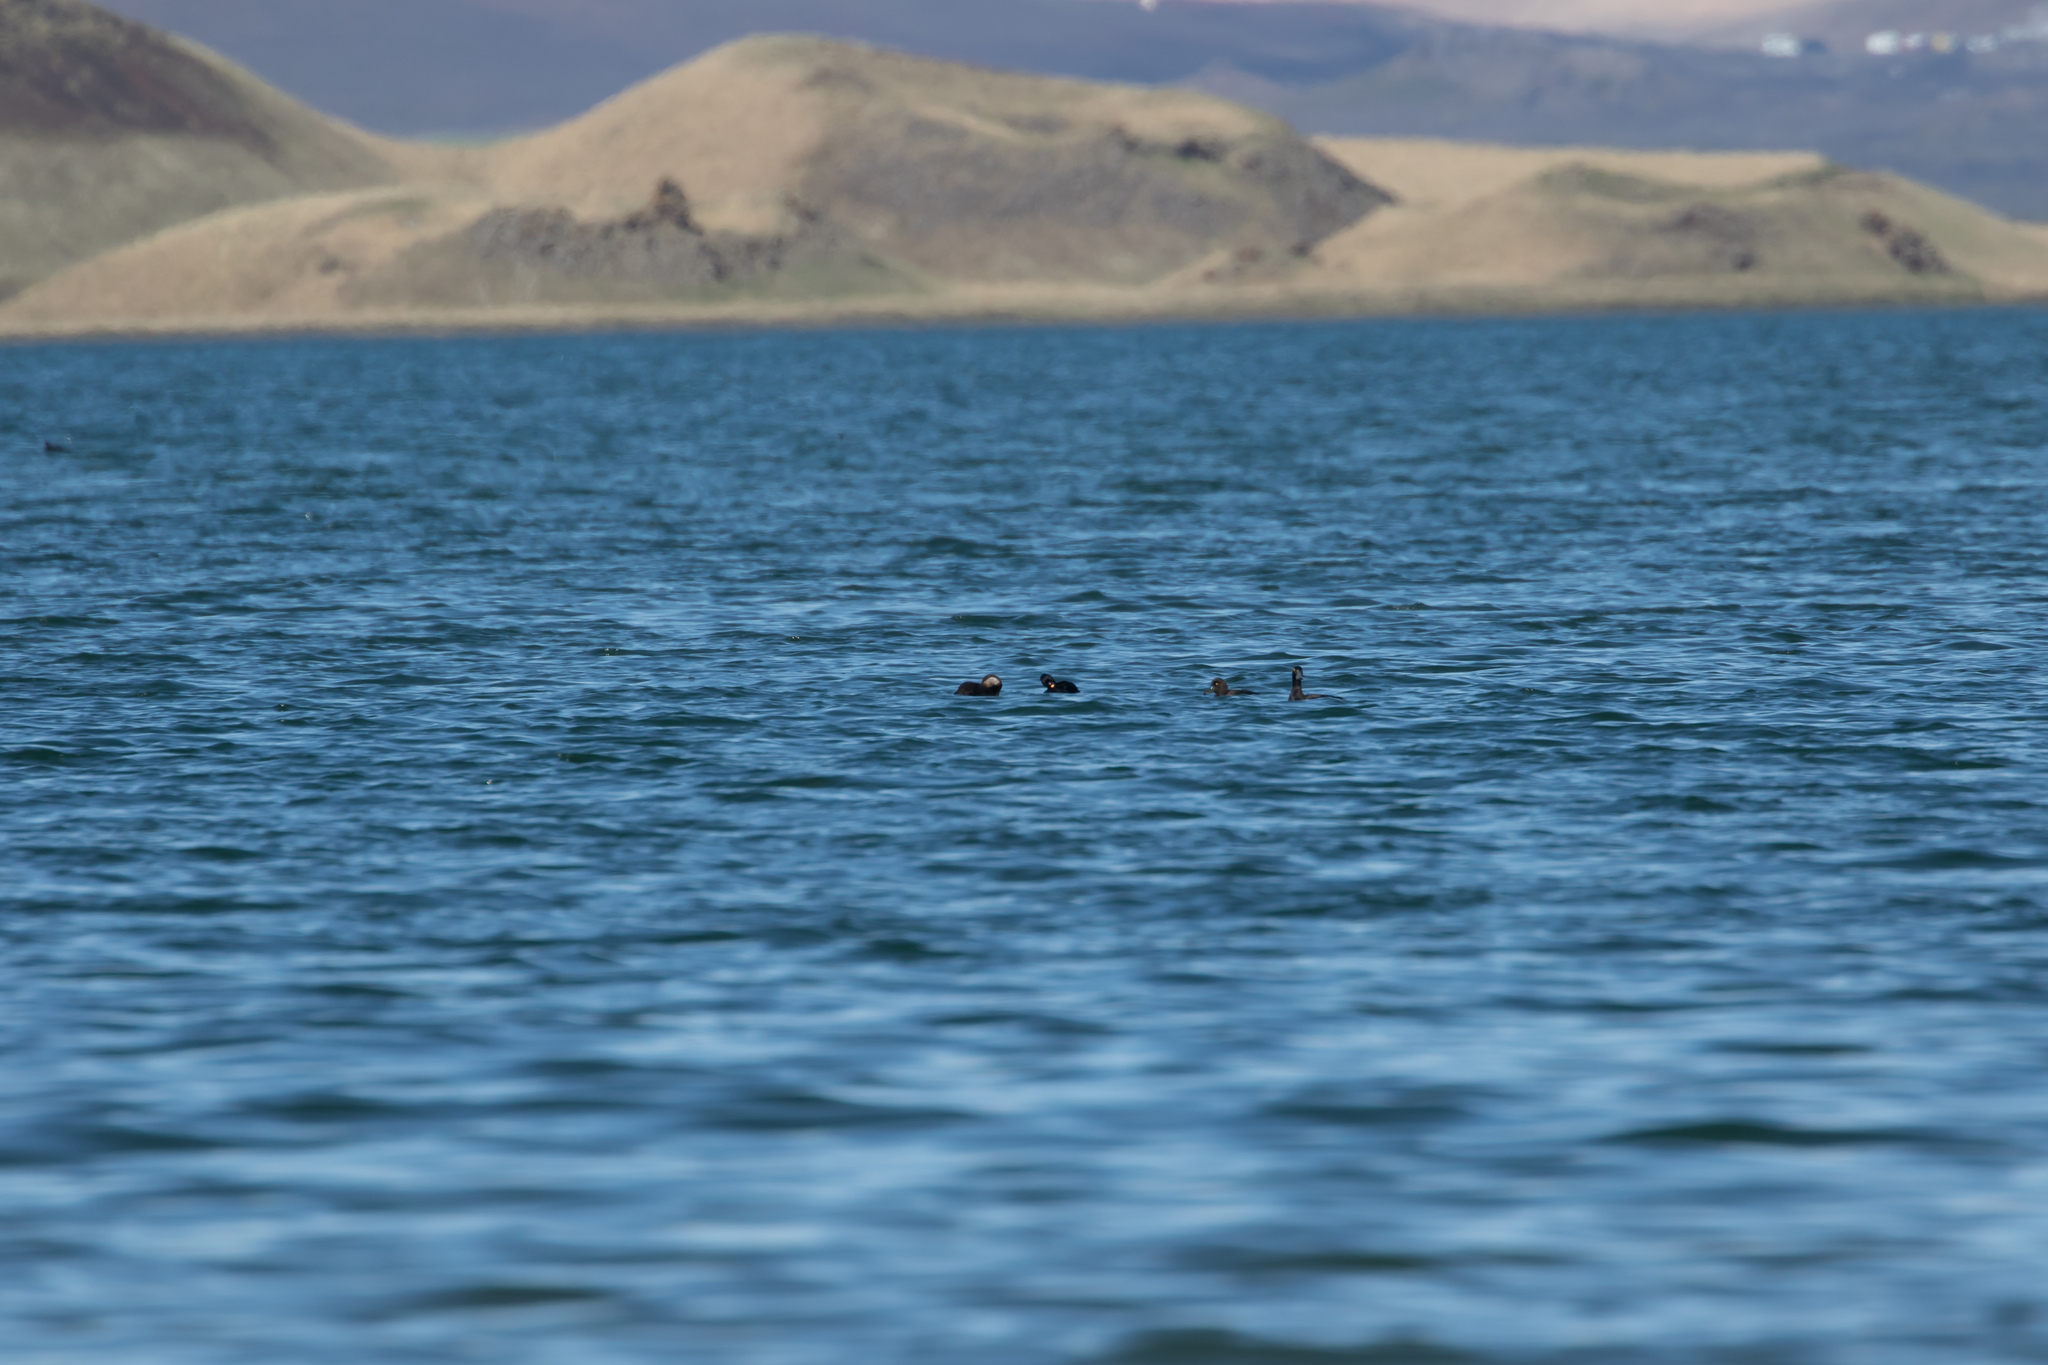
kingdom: Animalia
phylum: Chordata
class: Aves
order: Anseriformes
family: Anatidae
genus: Melanitta
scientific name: Melanitta nigra
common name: Common scoter
